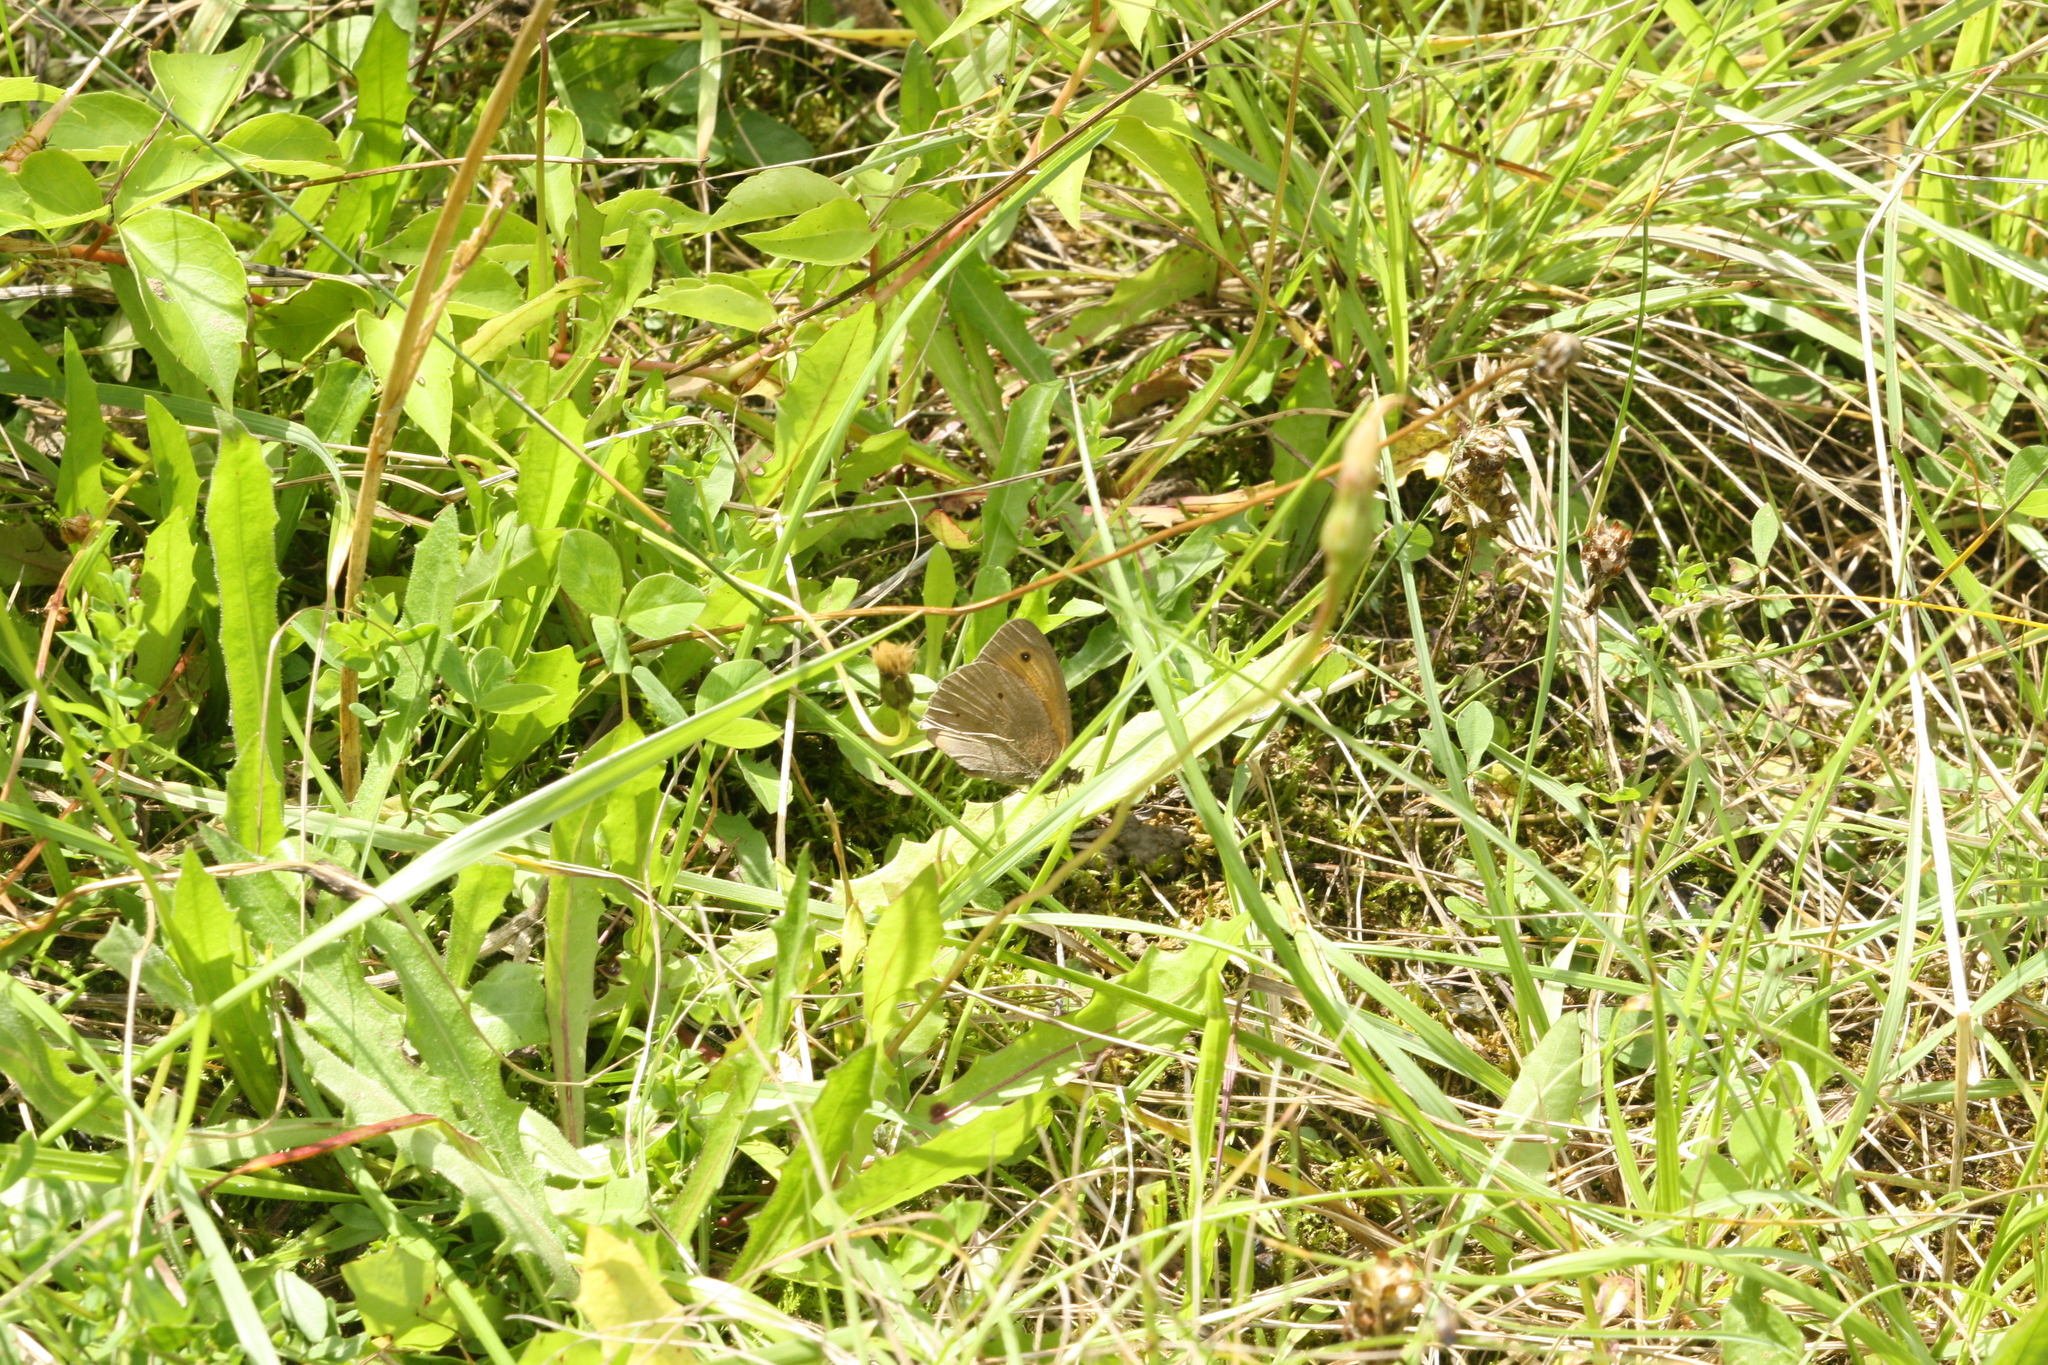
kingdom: Animalia
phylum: Arthropoda
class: Insecta
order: Lepidoptera
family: Nymphalidae
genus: Maniola
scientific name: Maniola jurtina
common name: Meadow brown
